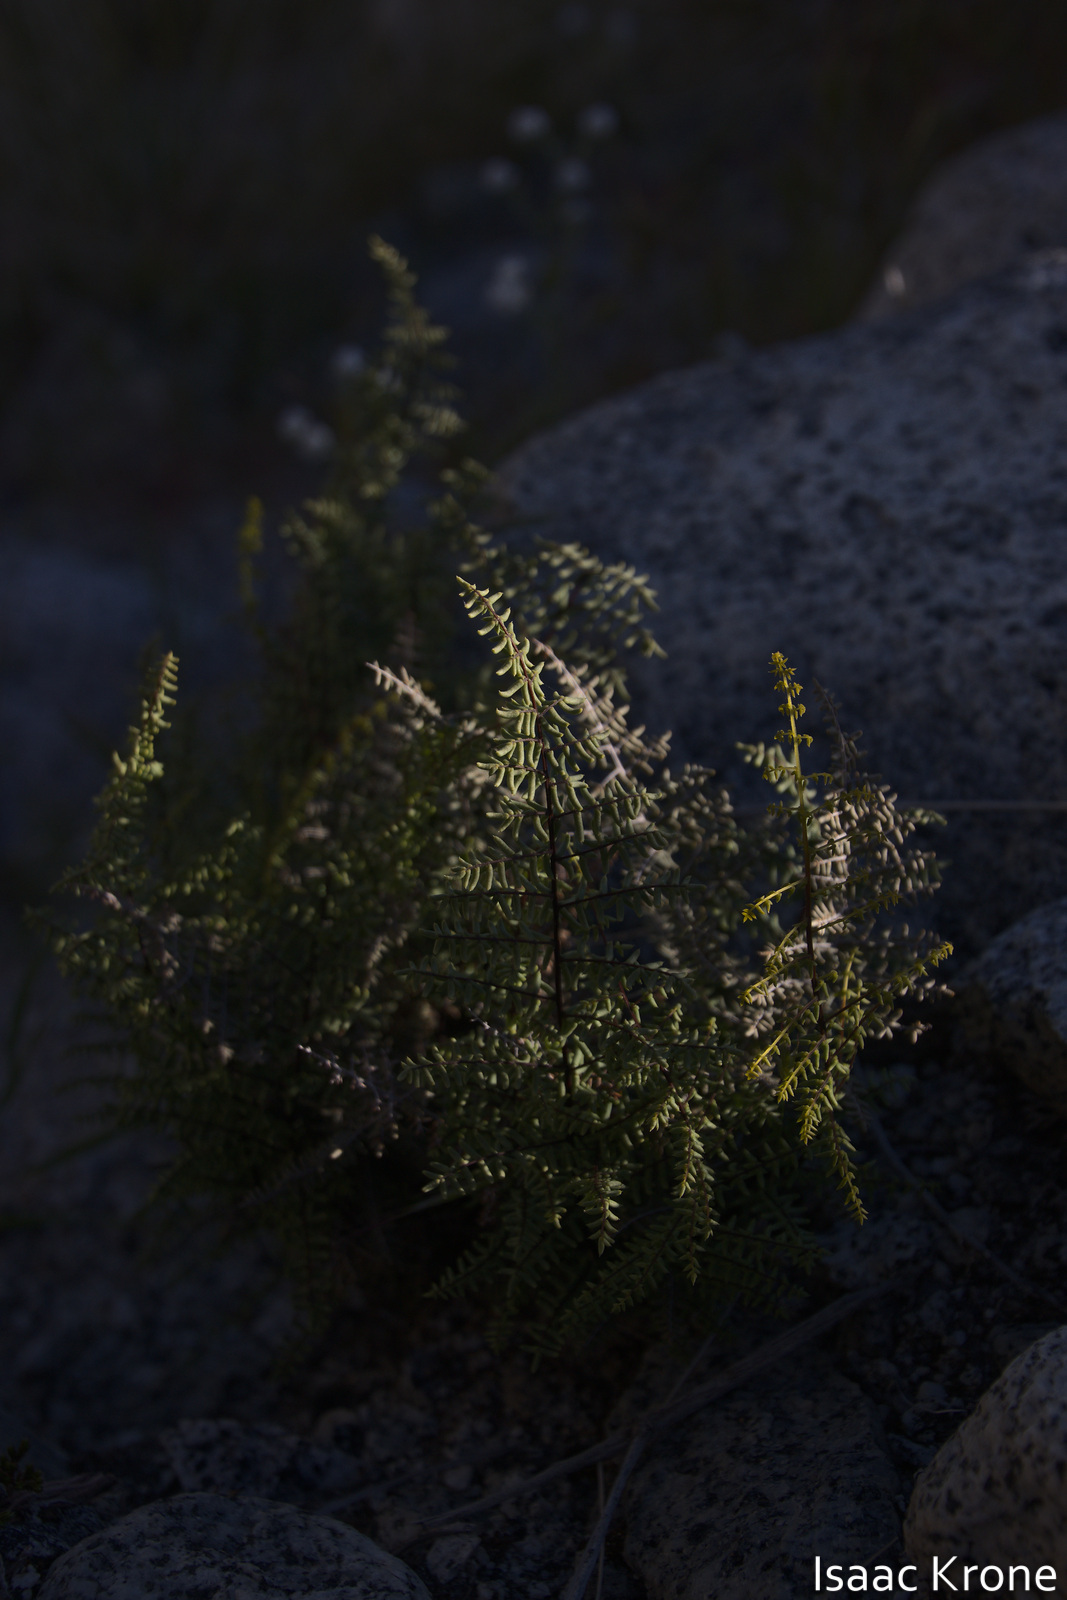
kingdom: Plantae
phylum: Tracheophyta
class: Polypodiopsida
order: Polypodiales
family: Pteridaceae
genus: Pellaea
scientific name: Pellaea mucronata
